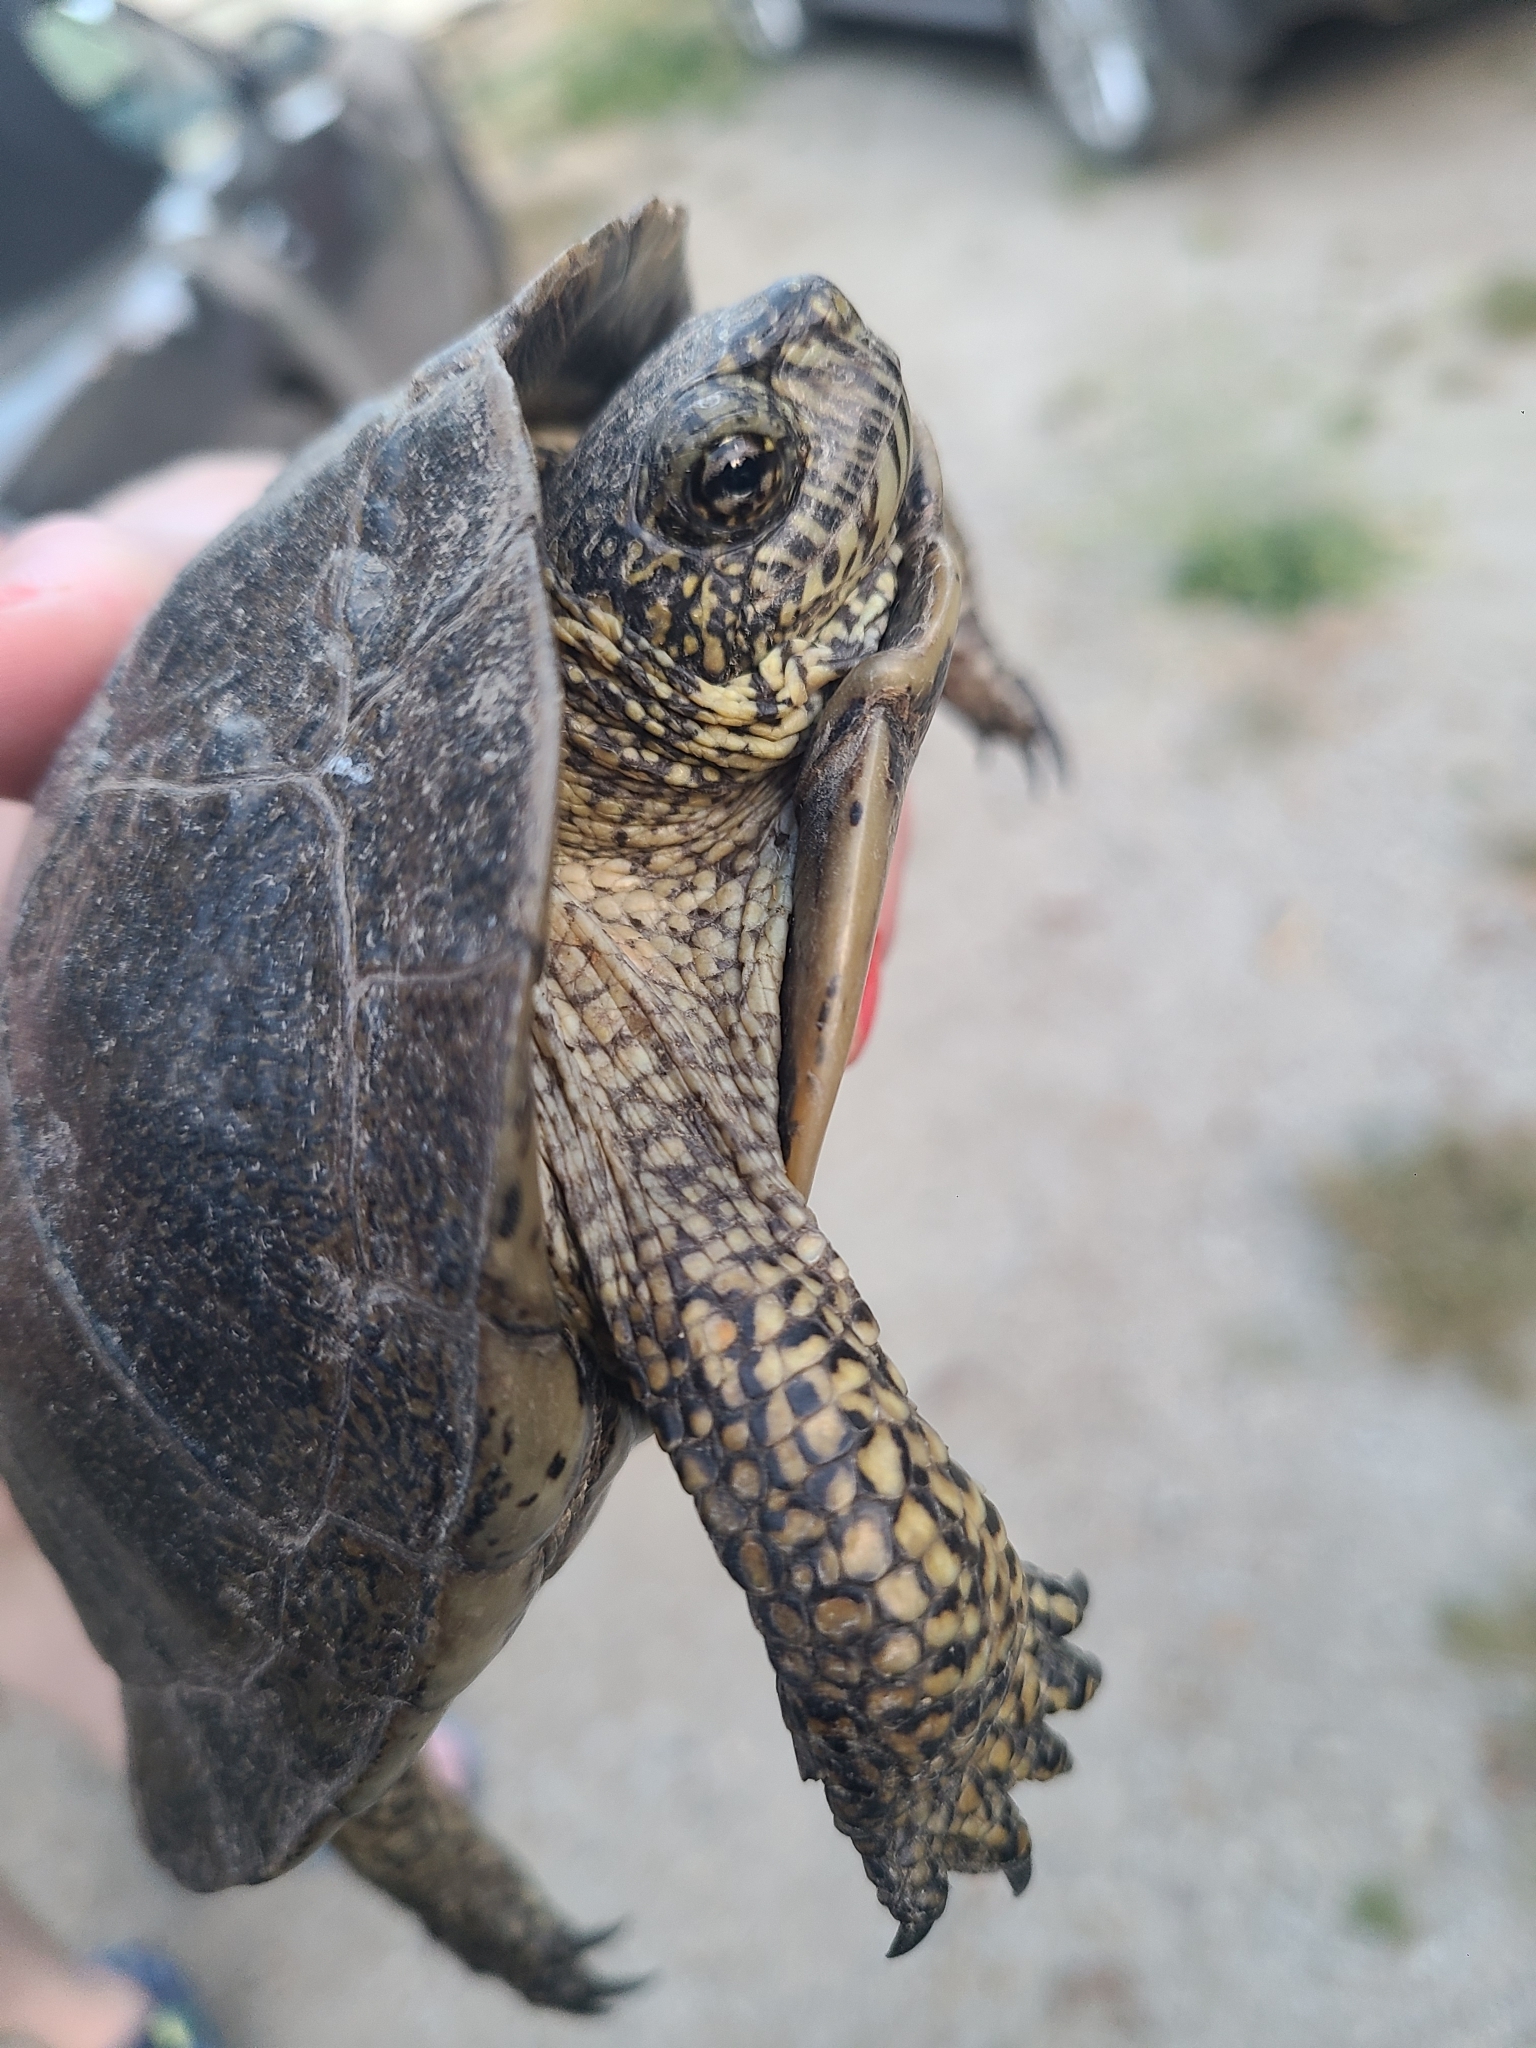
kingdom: Animalia
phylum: Chordata
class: Testudines
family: Emydidae
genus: Actinemys
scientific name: Actinemys marmorata
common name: Western pond turtle
